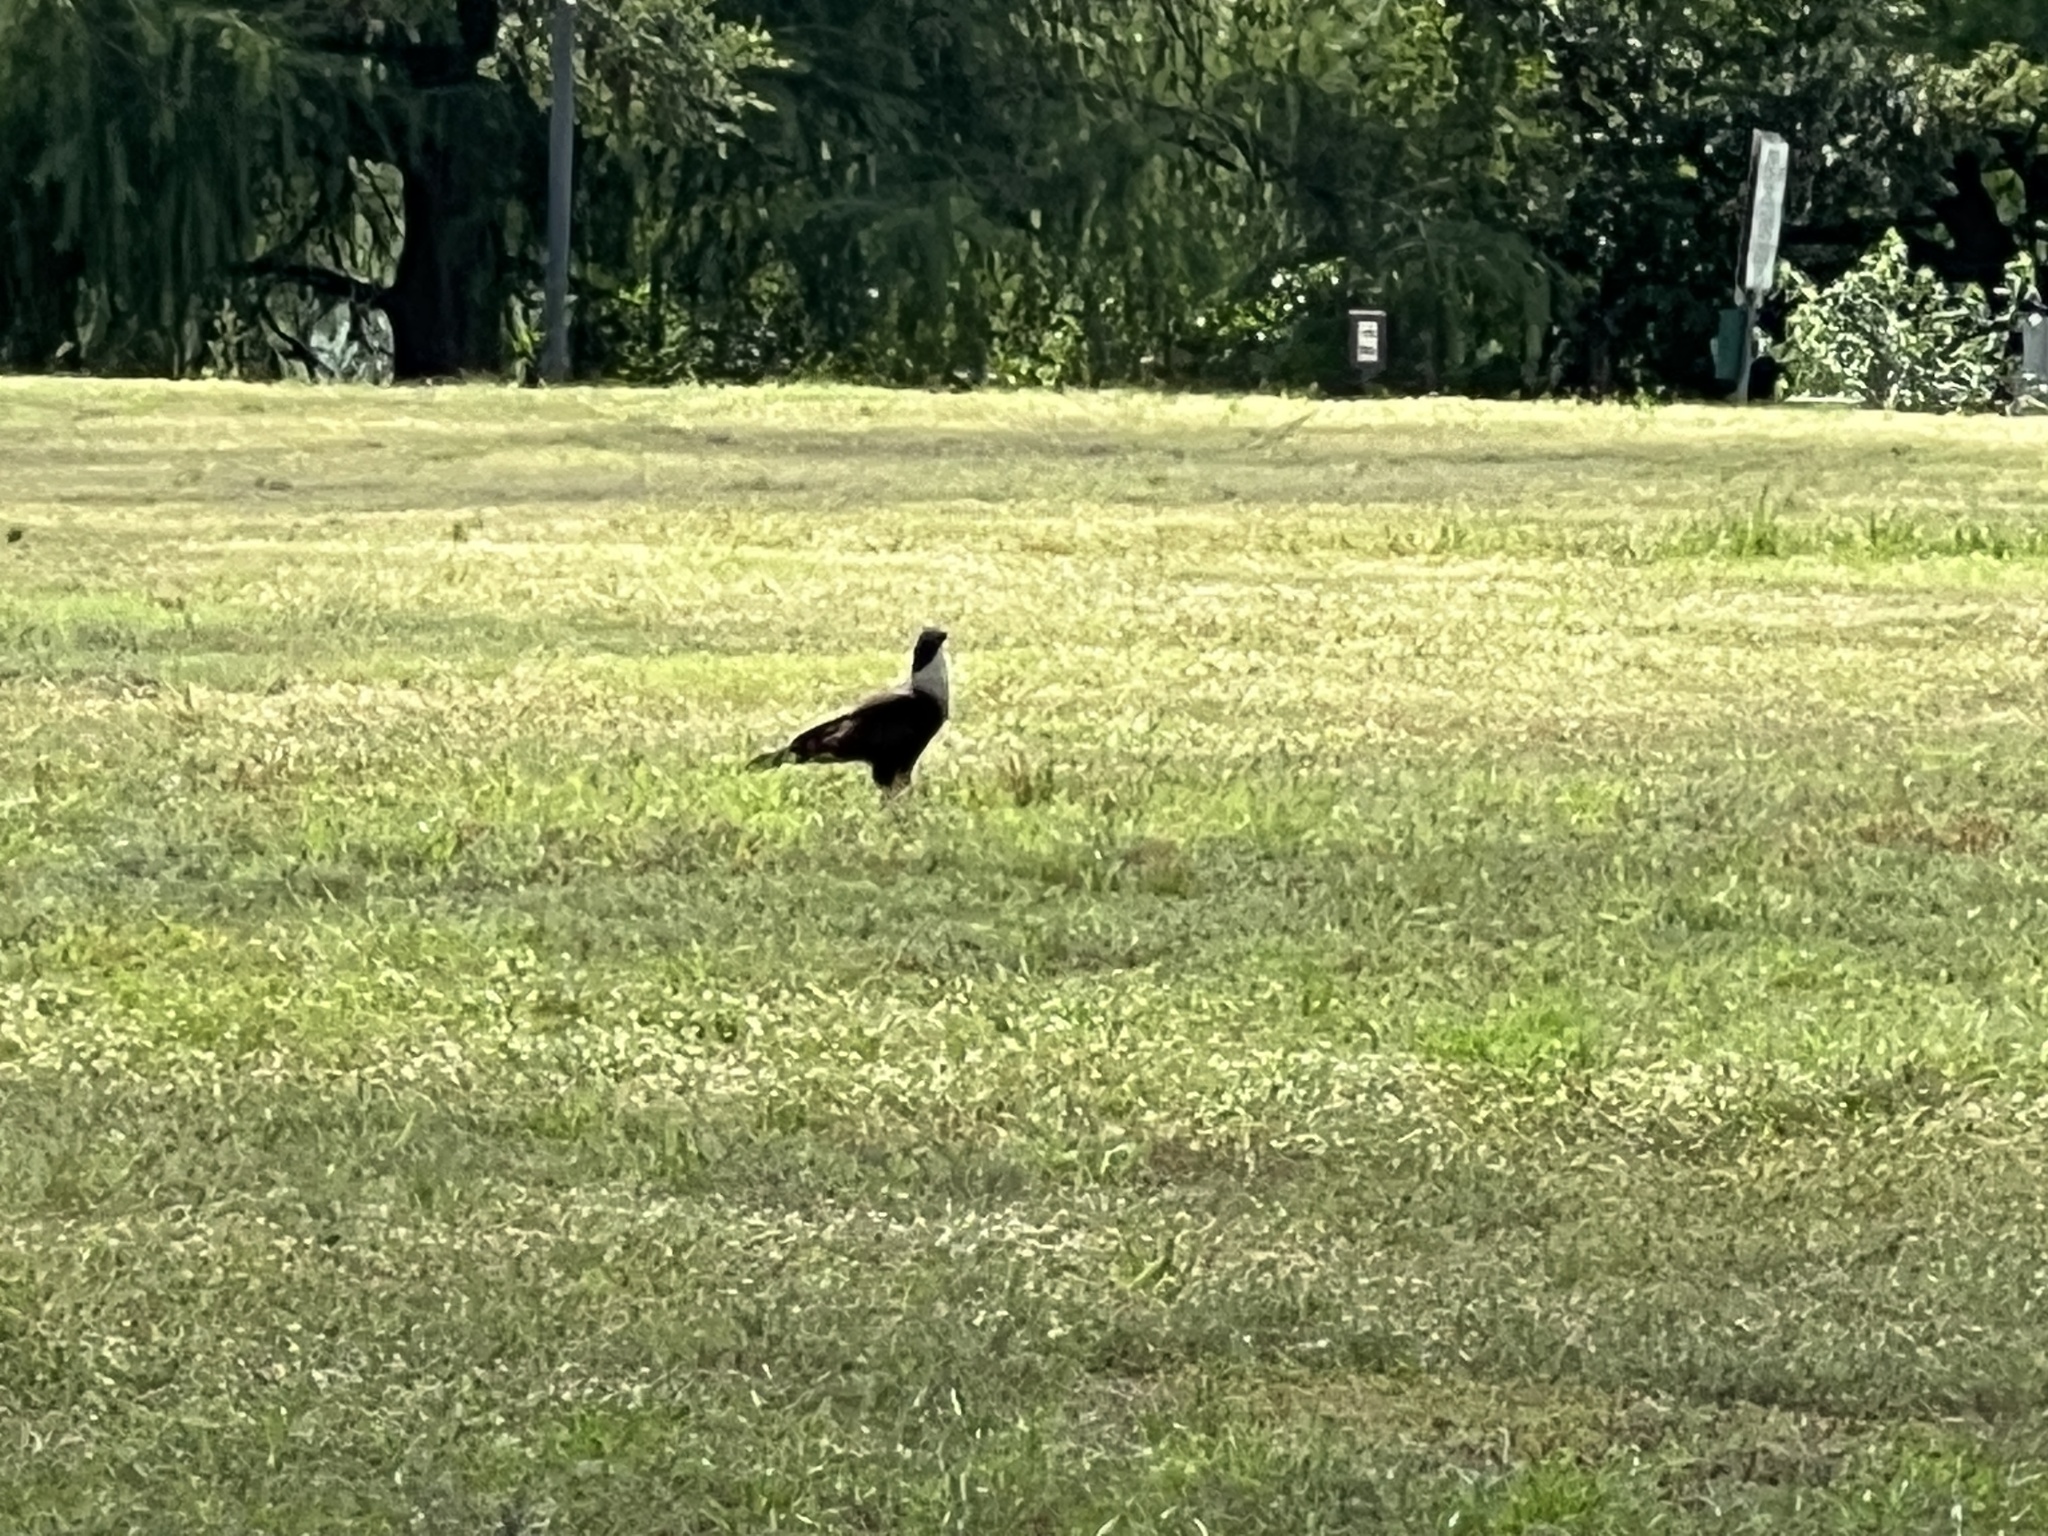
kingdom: Animalia
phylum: Chordata
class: Aves
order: Falconiformes
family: Falconidae
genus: Caracara
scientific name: Caracara plancus
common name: Southern caracara
